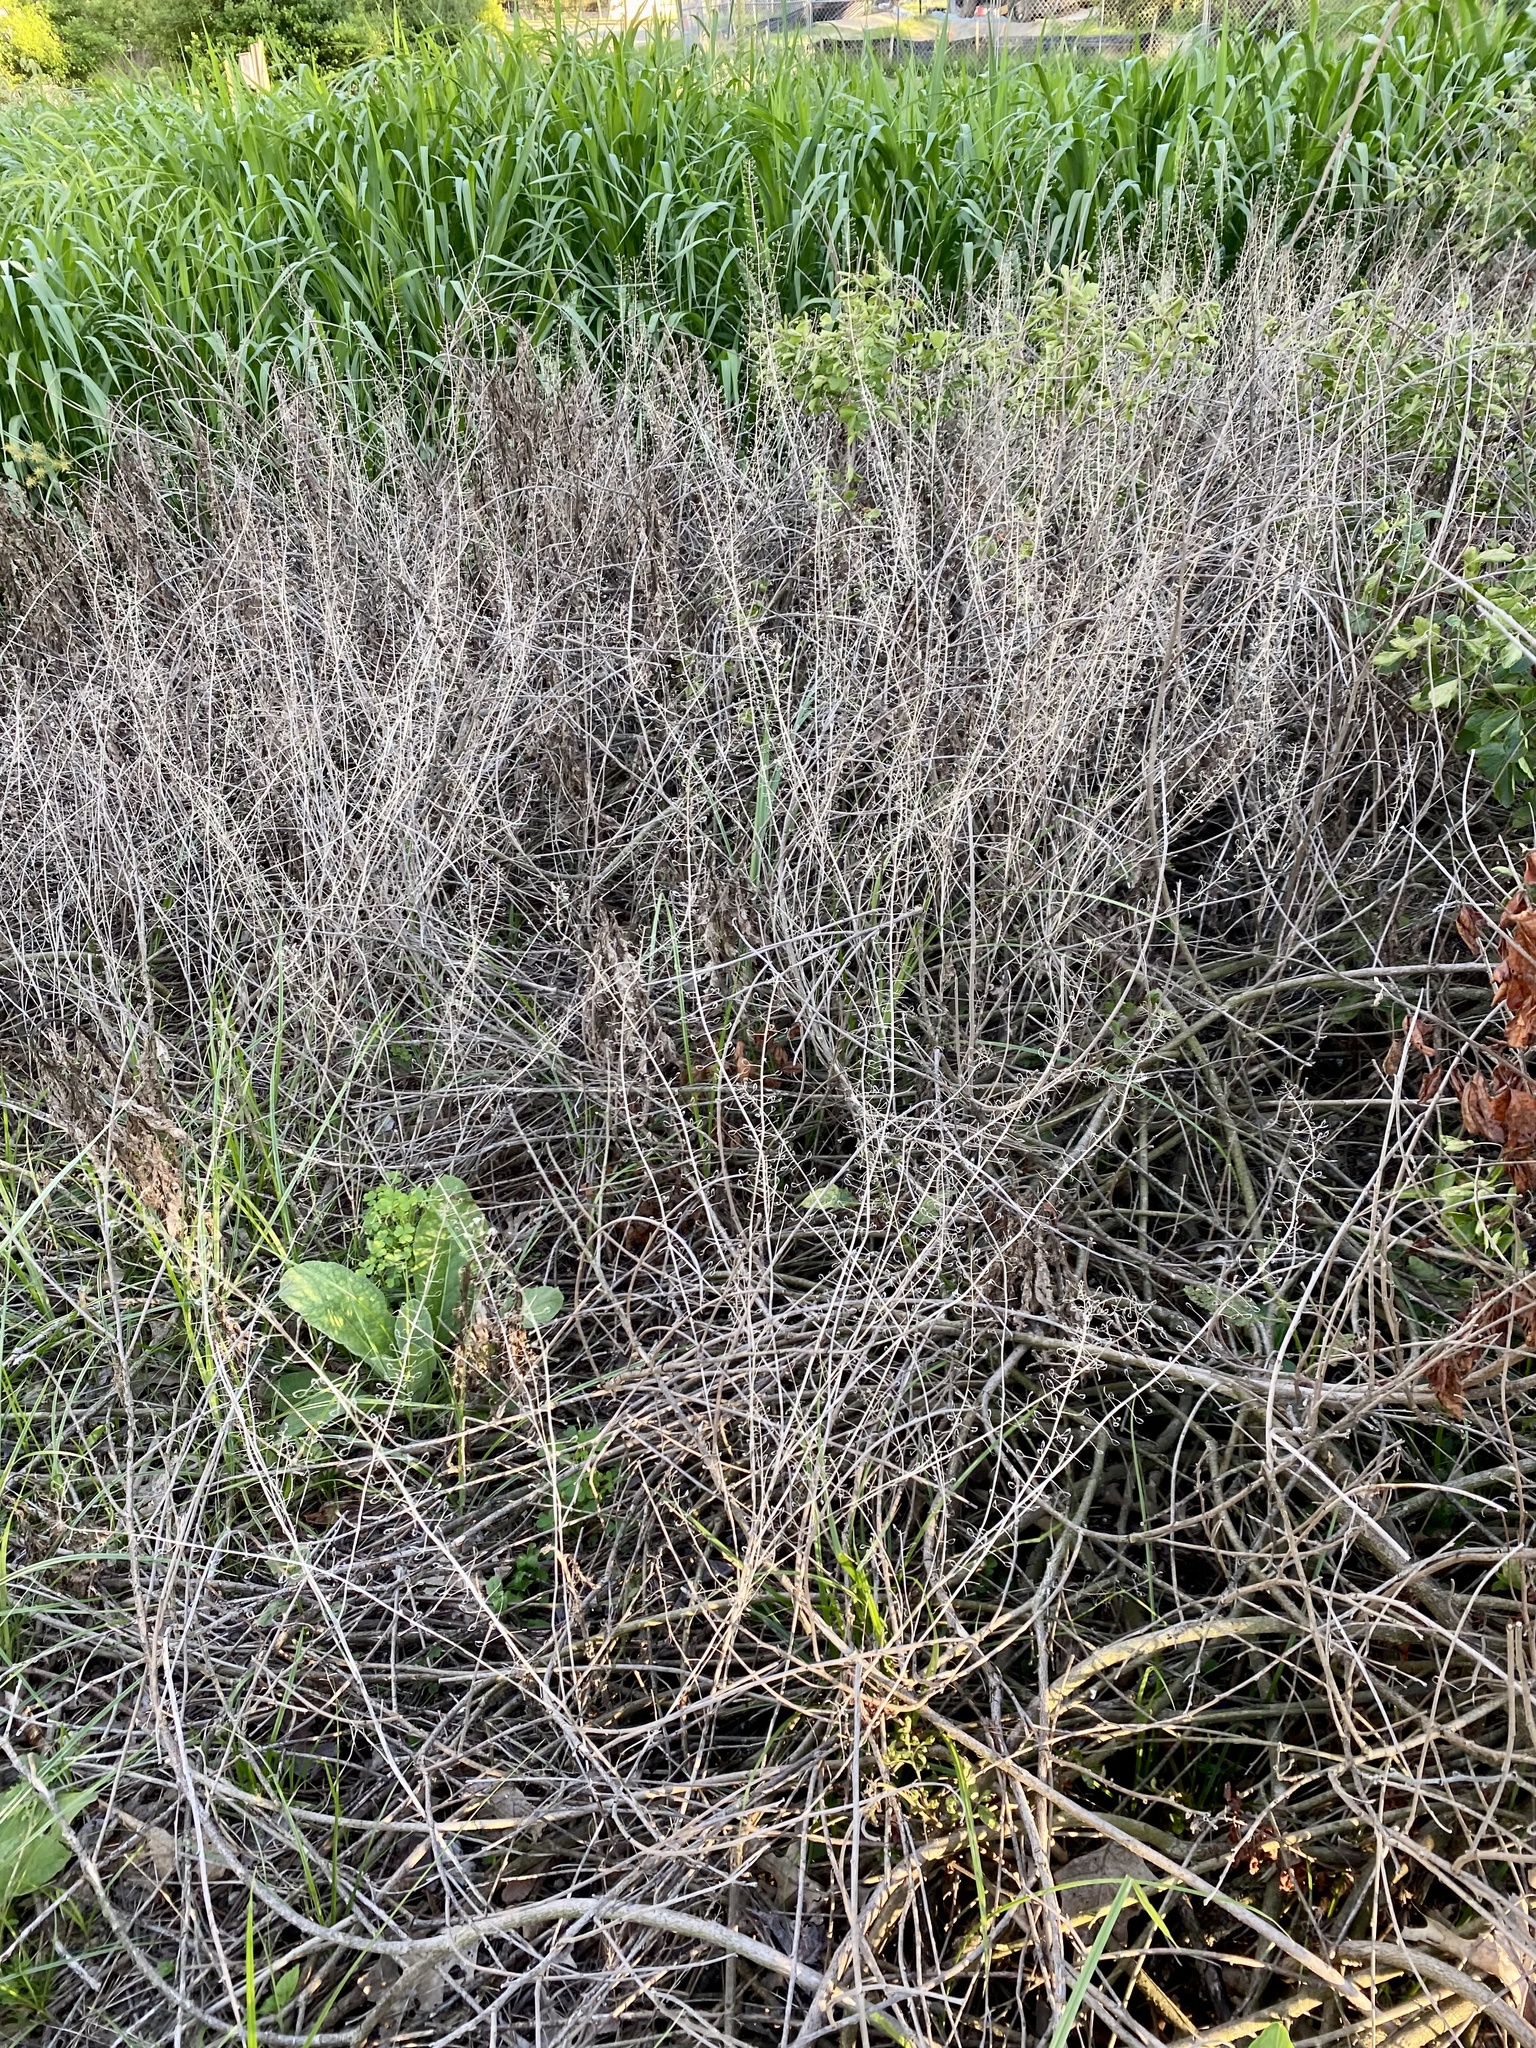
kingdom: Plantae
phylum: Tracheophyta
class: Magnoliopsida
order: Brassicales
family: Brassicaceae
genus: Mummenhoffia
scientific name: Mummenhoffia alliacea
